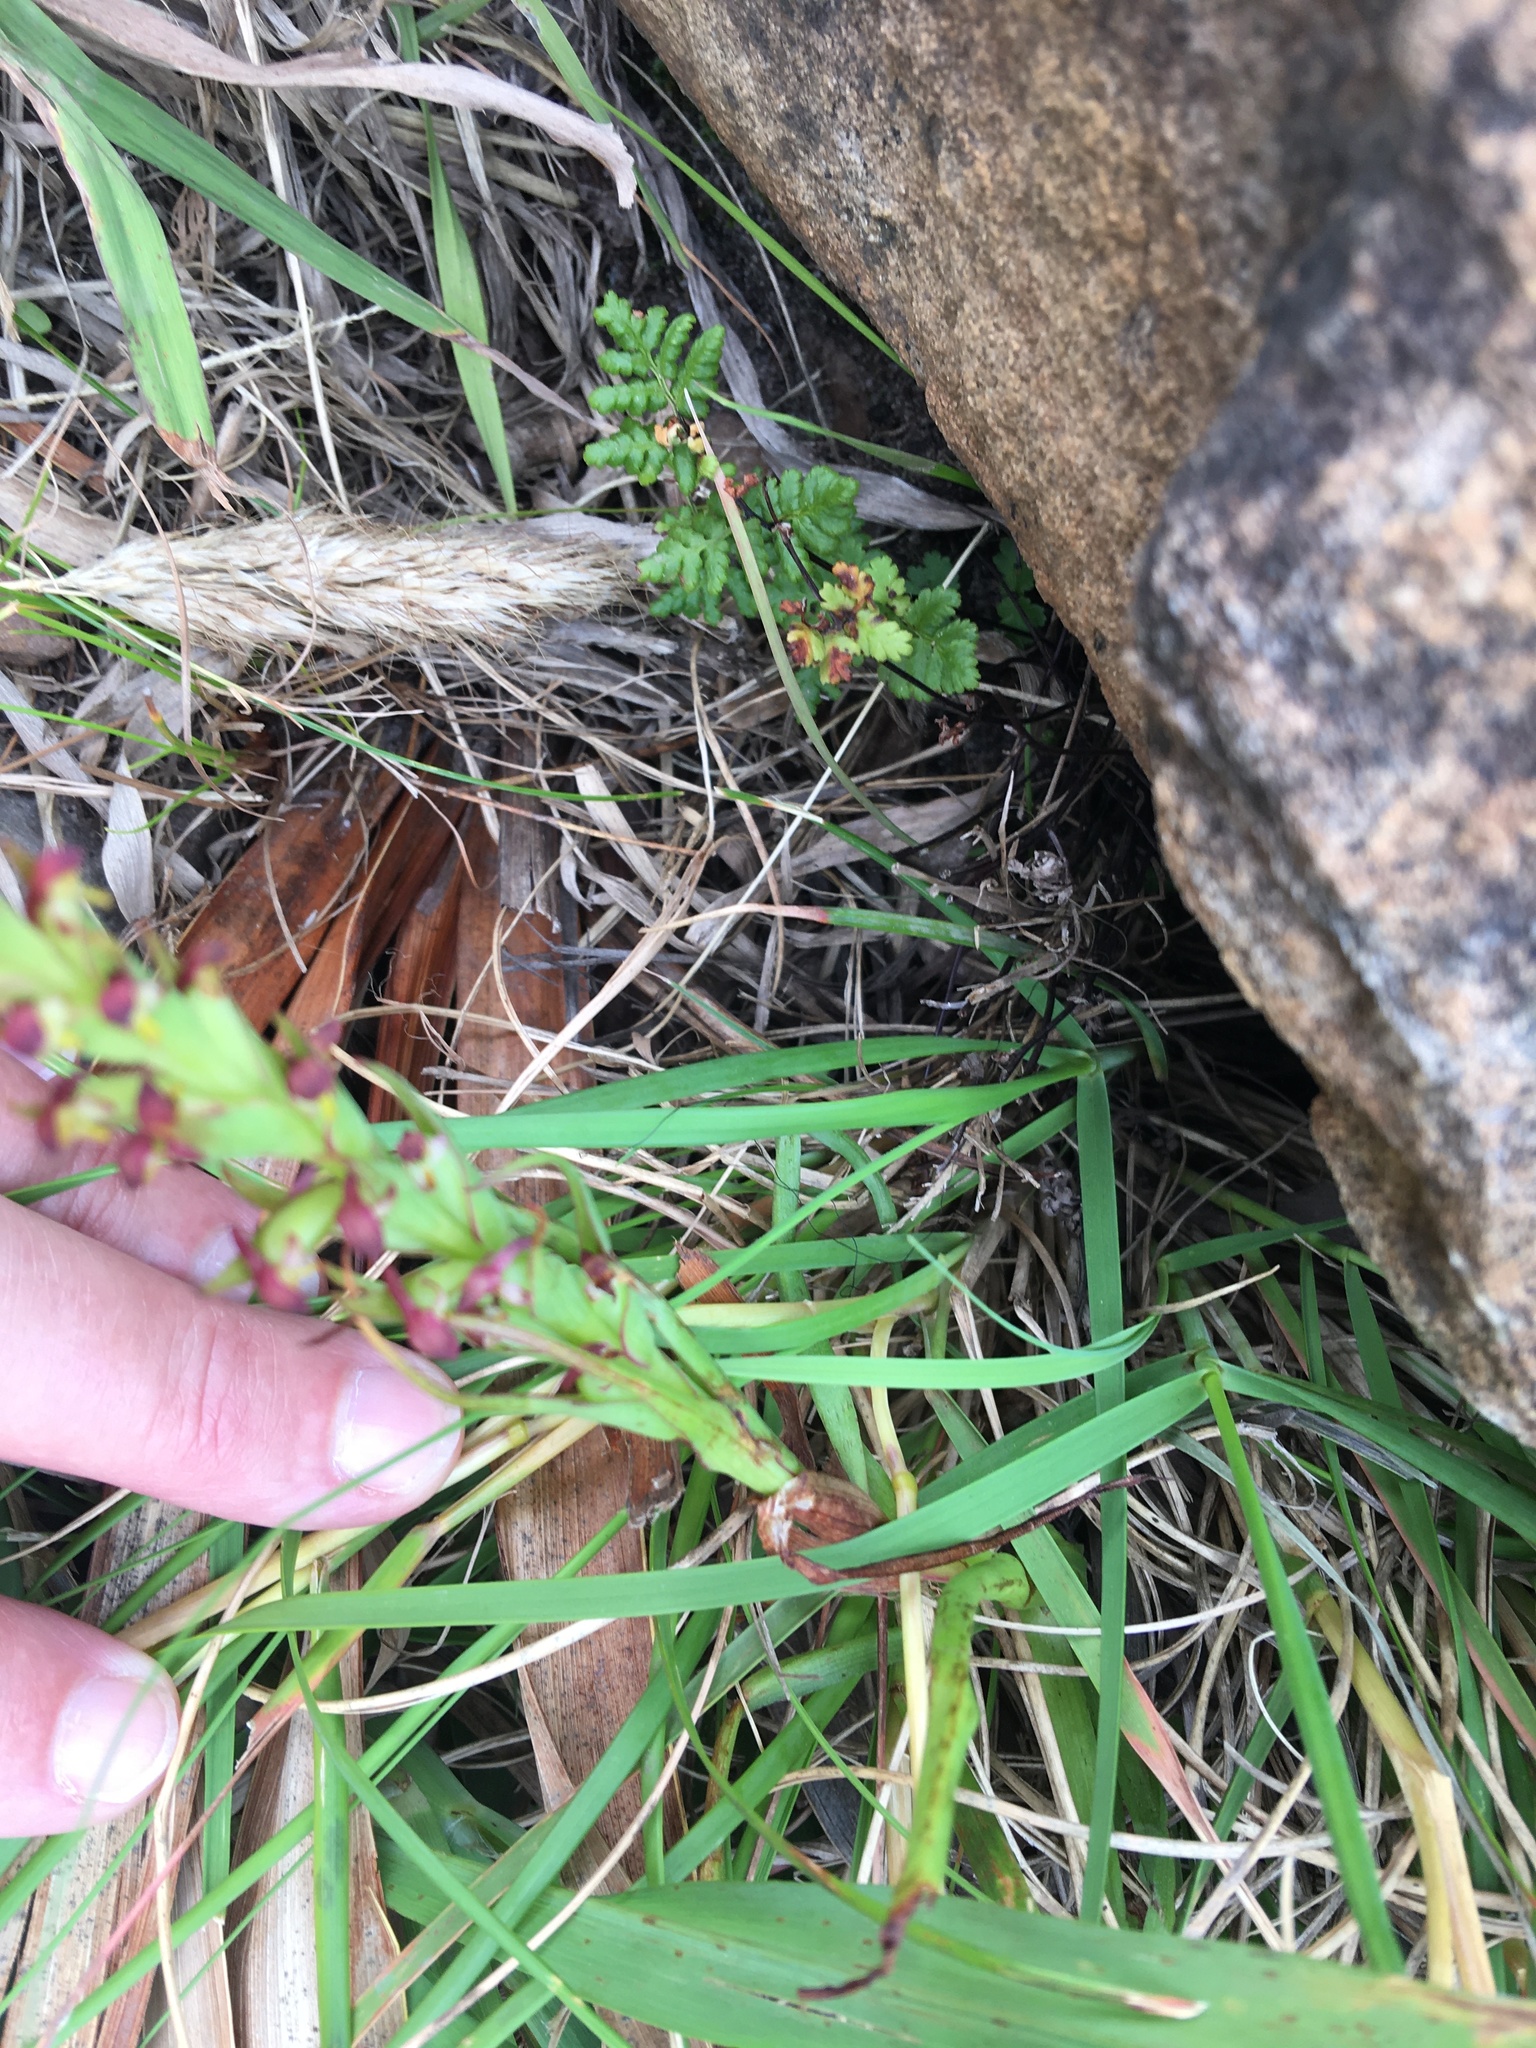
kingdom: Plantae
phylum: Tracheophyta
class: Liliopsida
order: Asparagales
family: Orchidaceae
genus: Disa
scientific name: Disa bracteata
